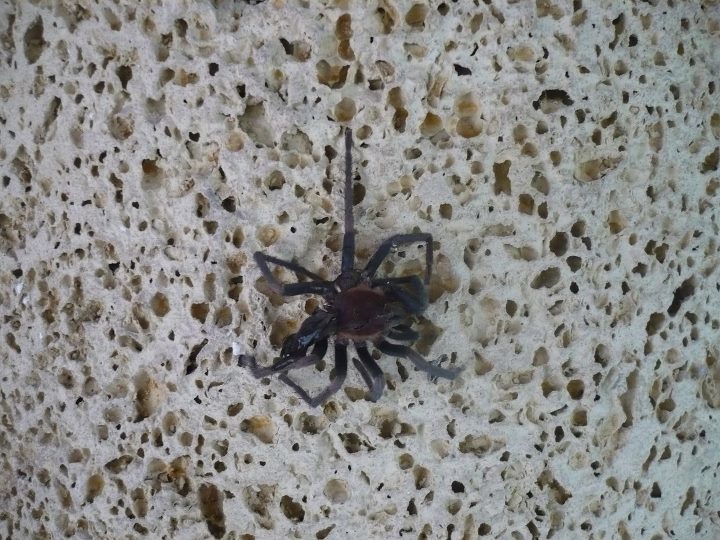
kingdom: Animalia
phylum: Arthropoda
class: Arachnida
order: Araneae
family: Theraphosidae
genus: Holothele
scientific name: Holothele longipes
